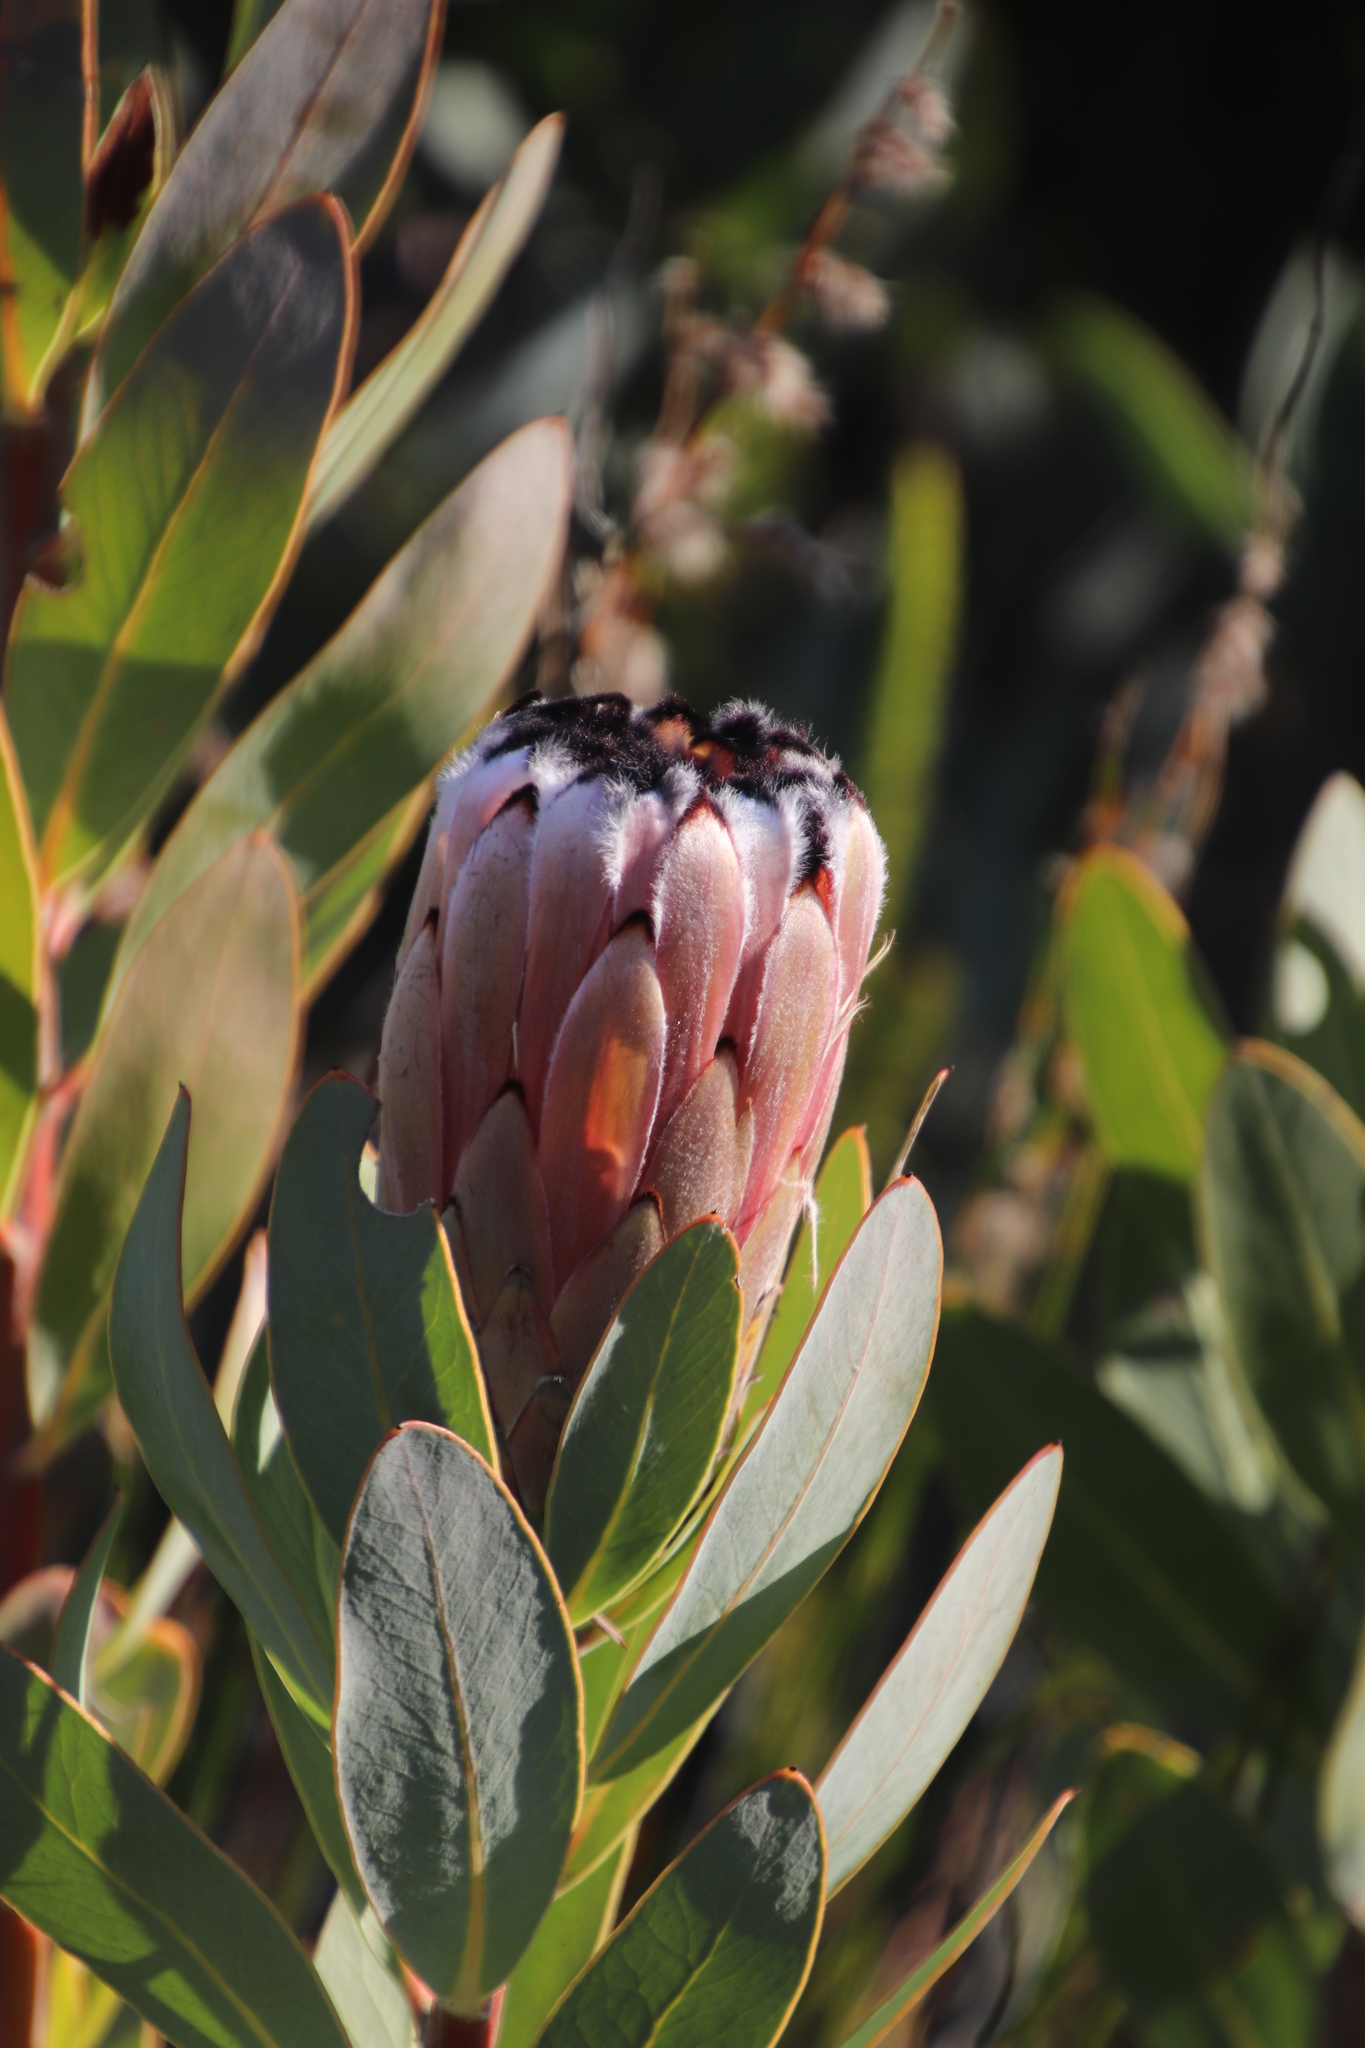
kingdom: Plantae
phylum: Tracheophyta
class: Magnoliopsida
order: Proteales
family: Proteaceae
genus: Protea
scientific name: Protea laurifolia
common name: Grey-leaf sugarbsh
